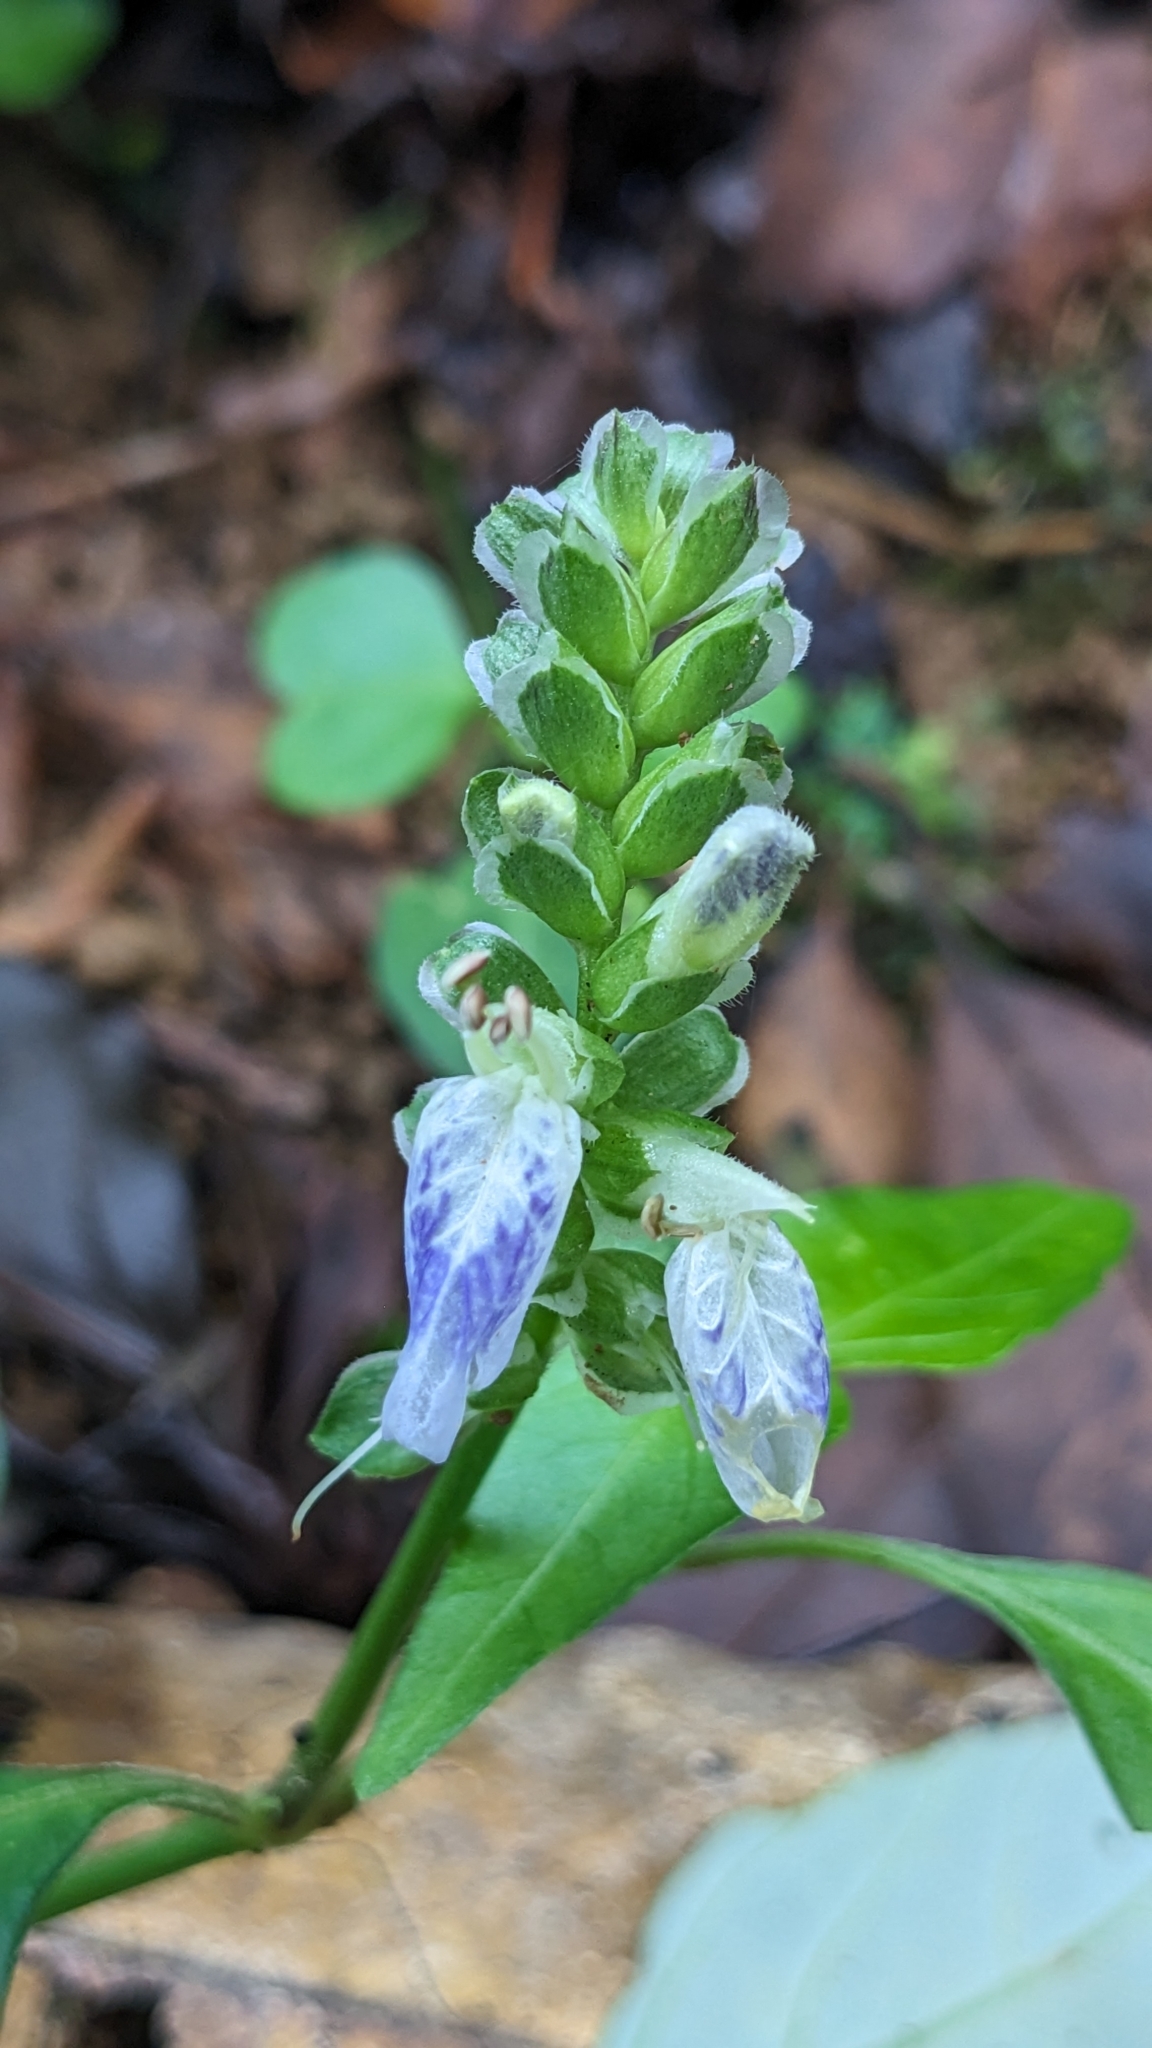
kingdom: Plantae
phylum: Tracheophyta
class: Magnoliopsida
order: Lamiales
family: Acanthaceae
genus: Rungia
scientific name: Rungia chinensis
